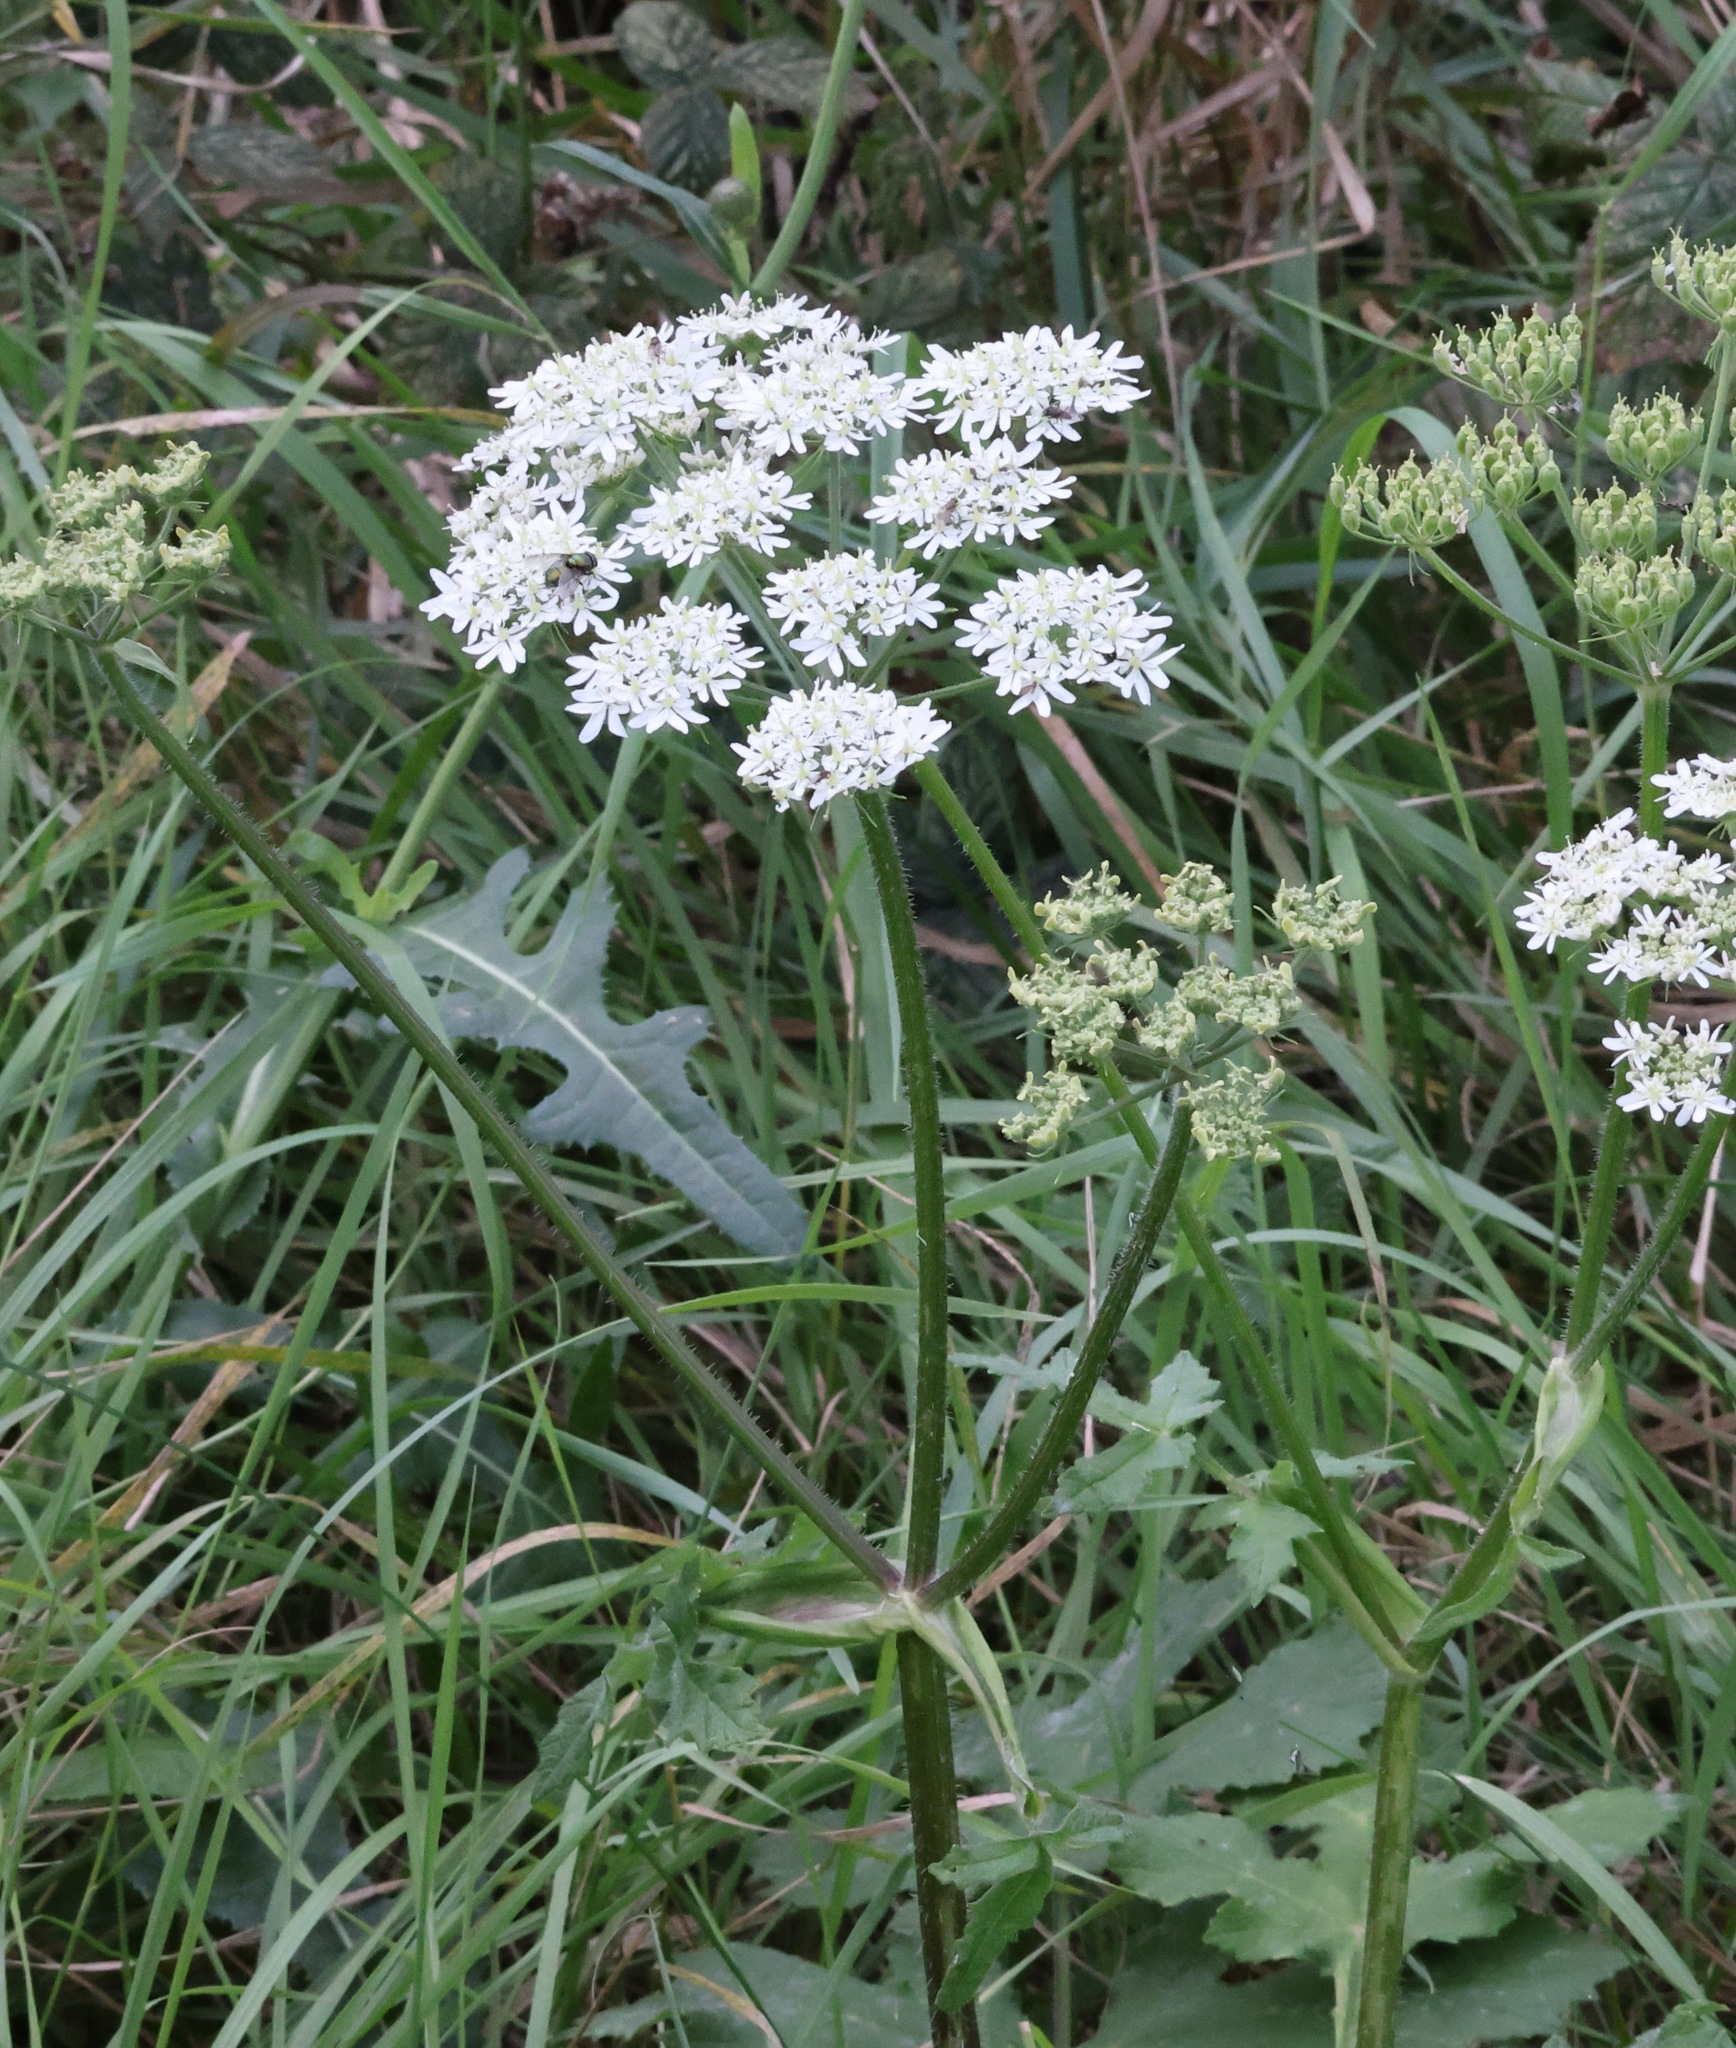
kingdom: Plantae
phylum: Tracheophyta
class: Magnoliopsida
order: Apiales
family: Apiaceae
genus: Heracleum
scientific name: Heracleum sphondylium
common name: Hogweed
